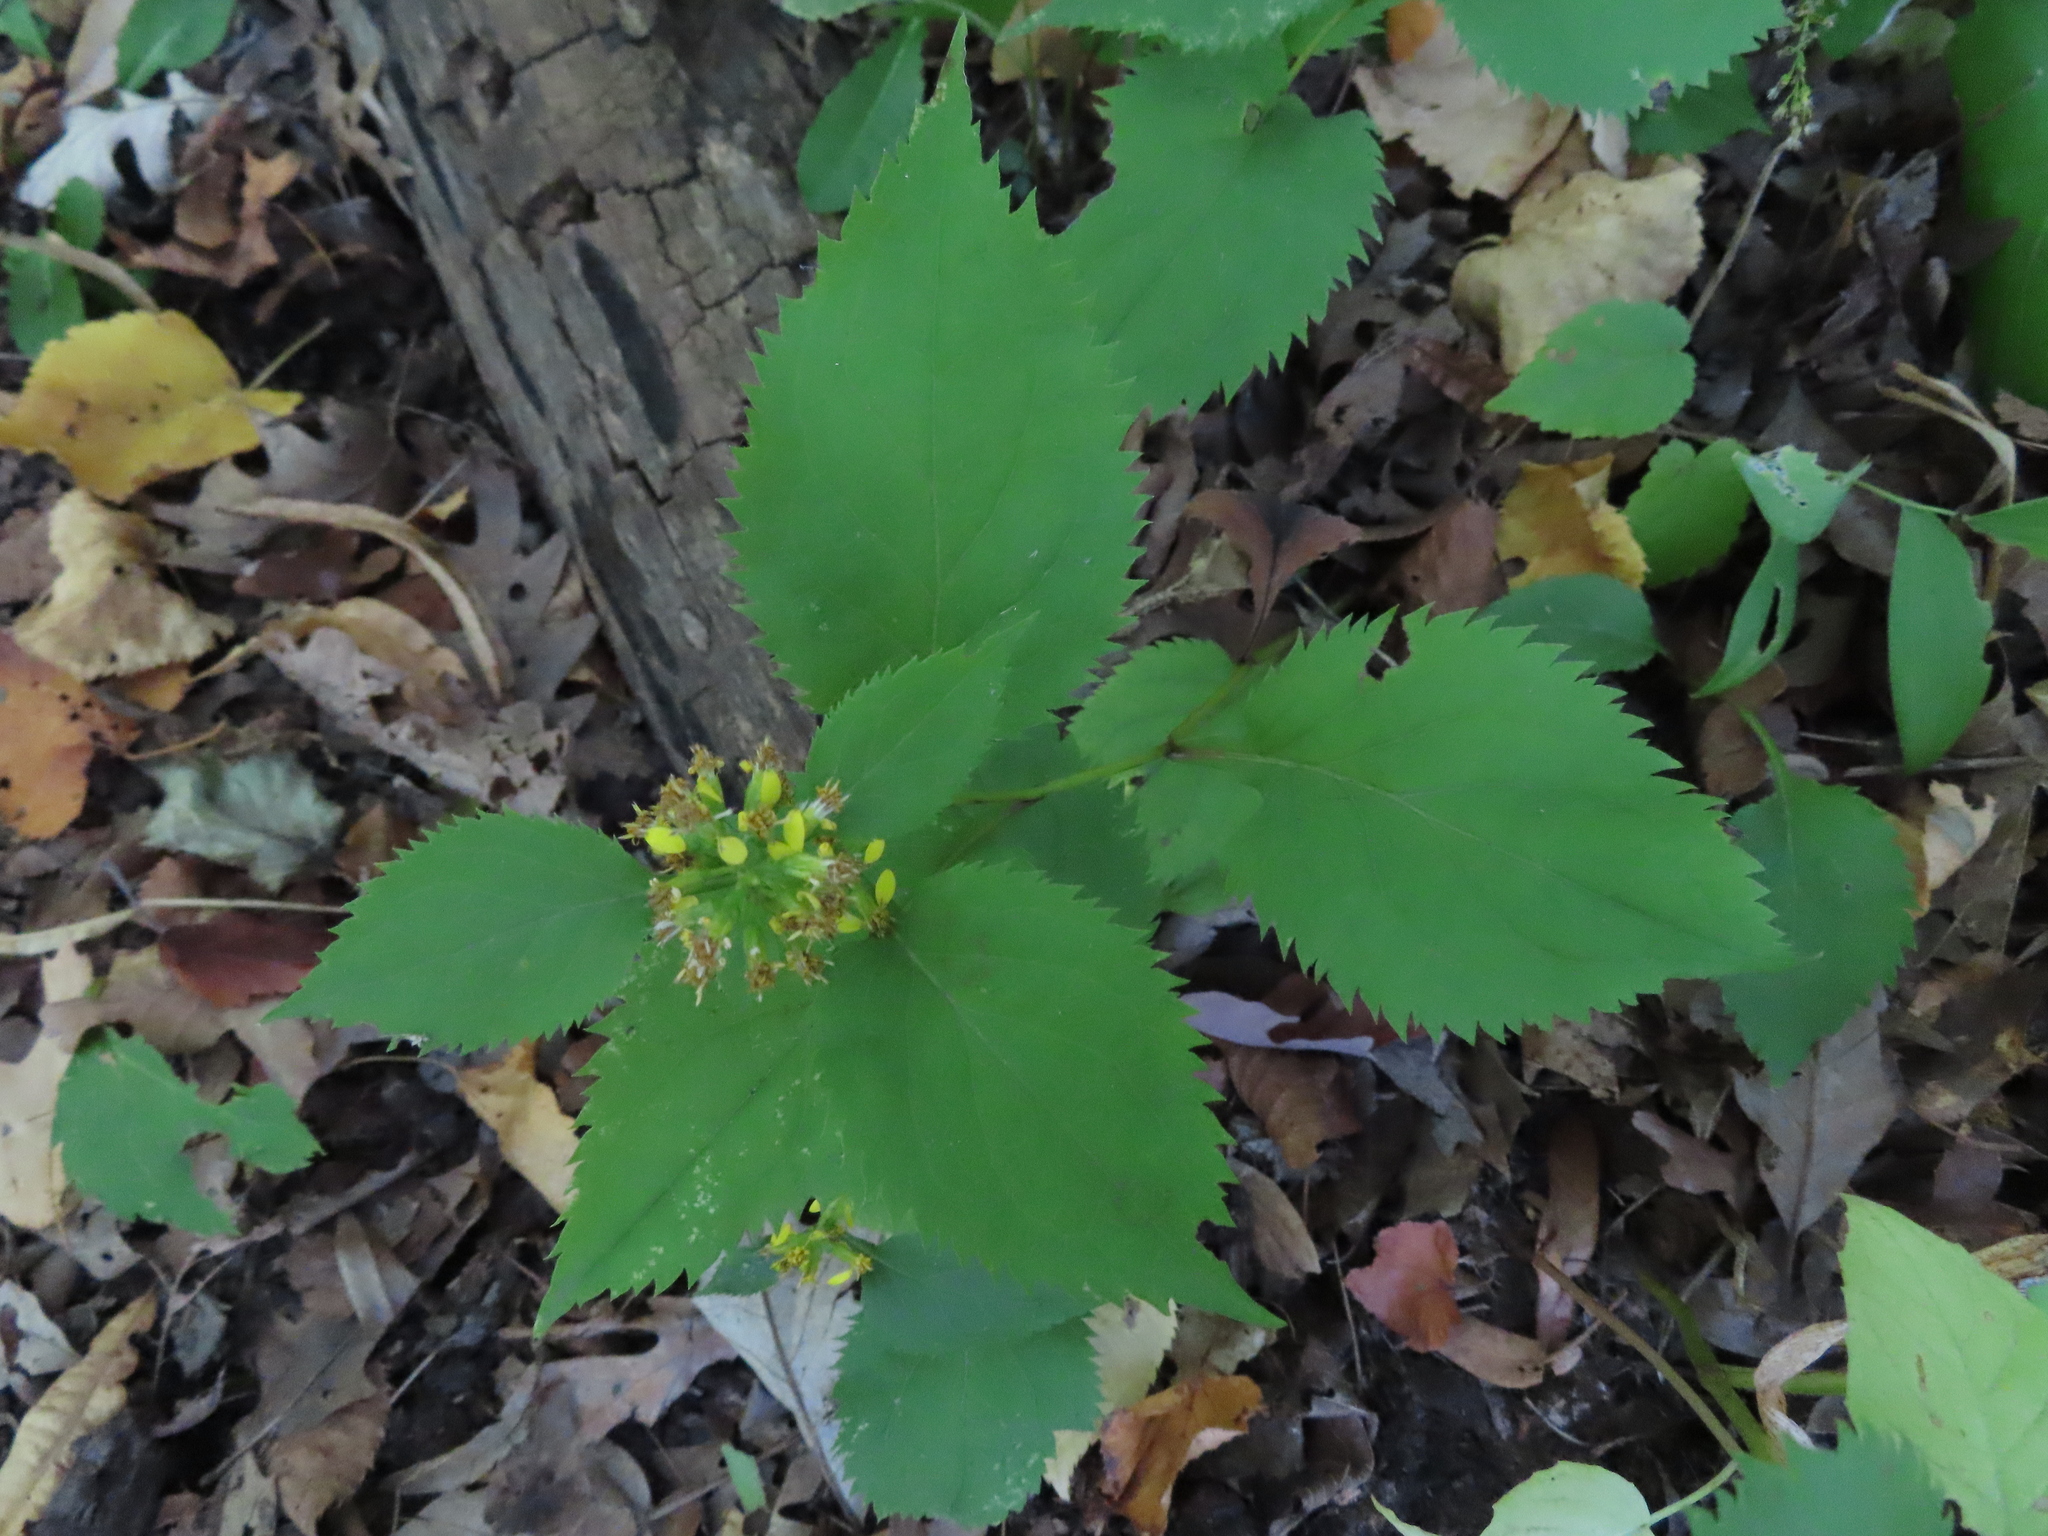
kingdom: Plantae
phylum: Tracheophyta
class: Magnoliopsida
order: Asterales
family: Asteraceae
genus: Solidago
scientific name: Solidago flexicaulis
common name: Zig-zag goldenrod
